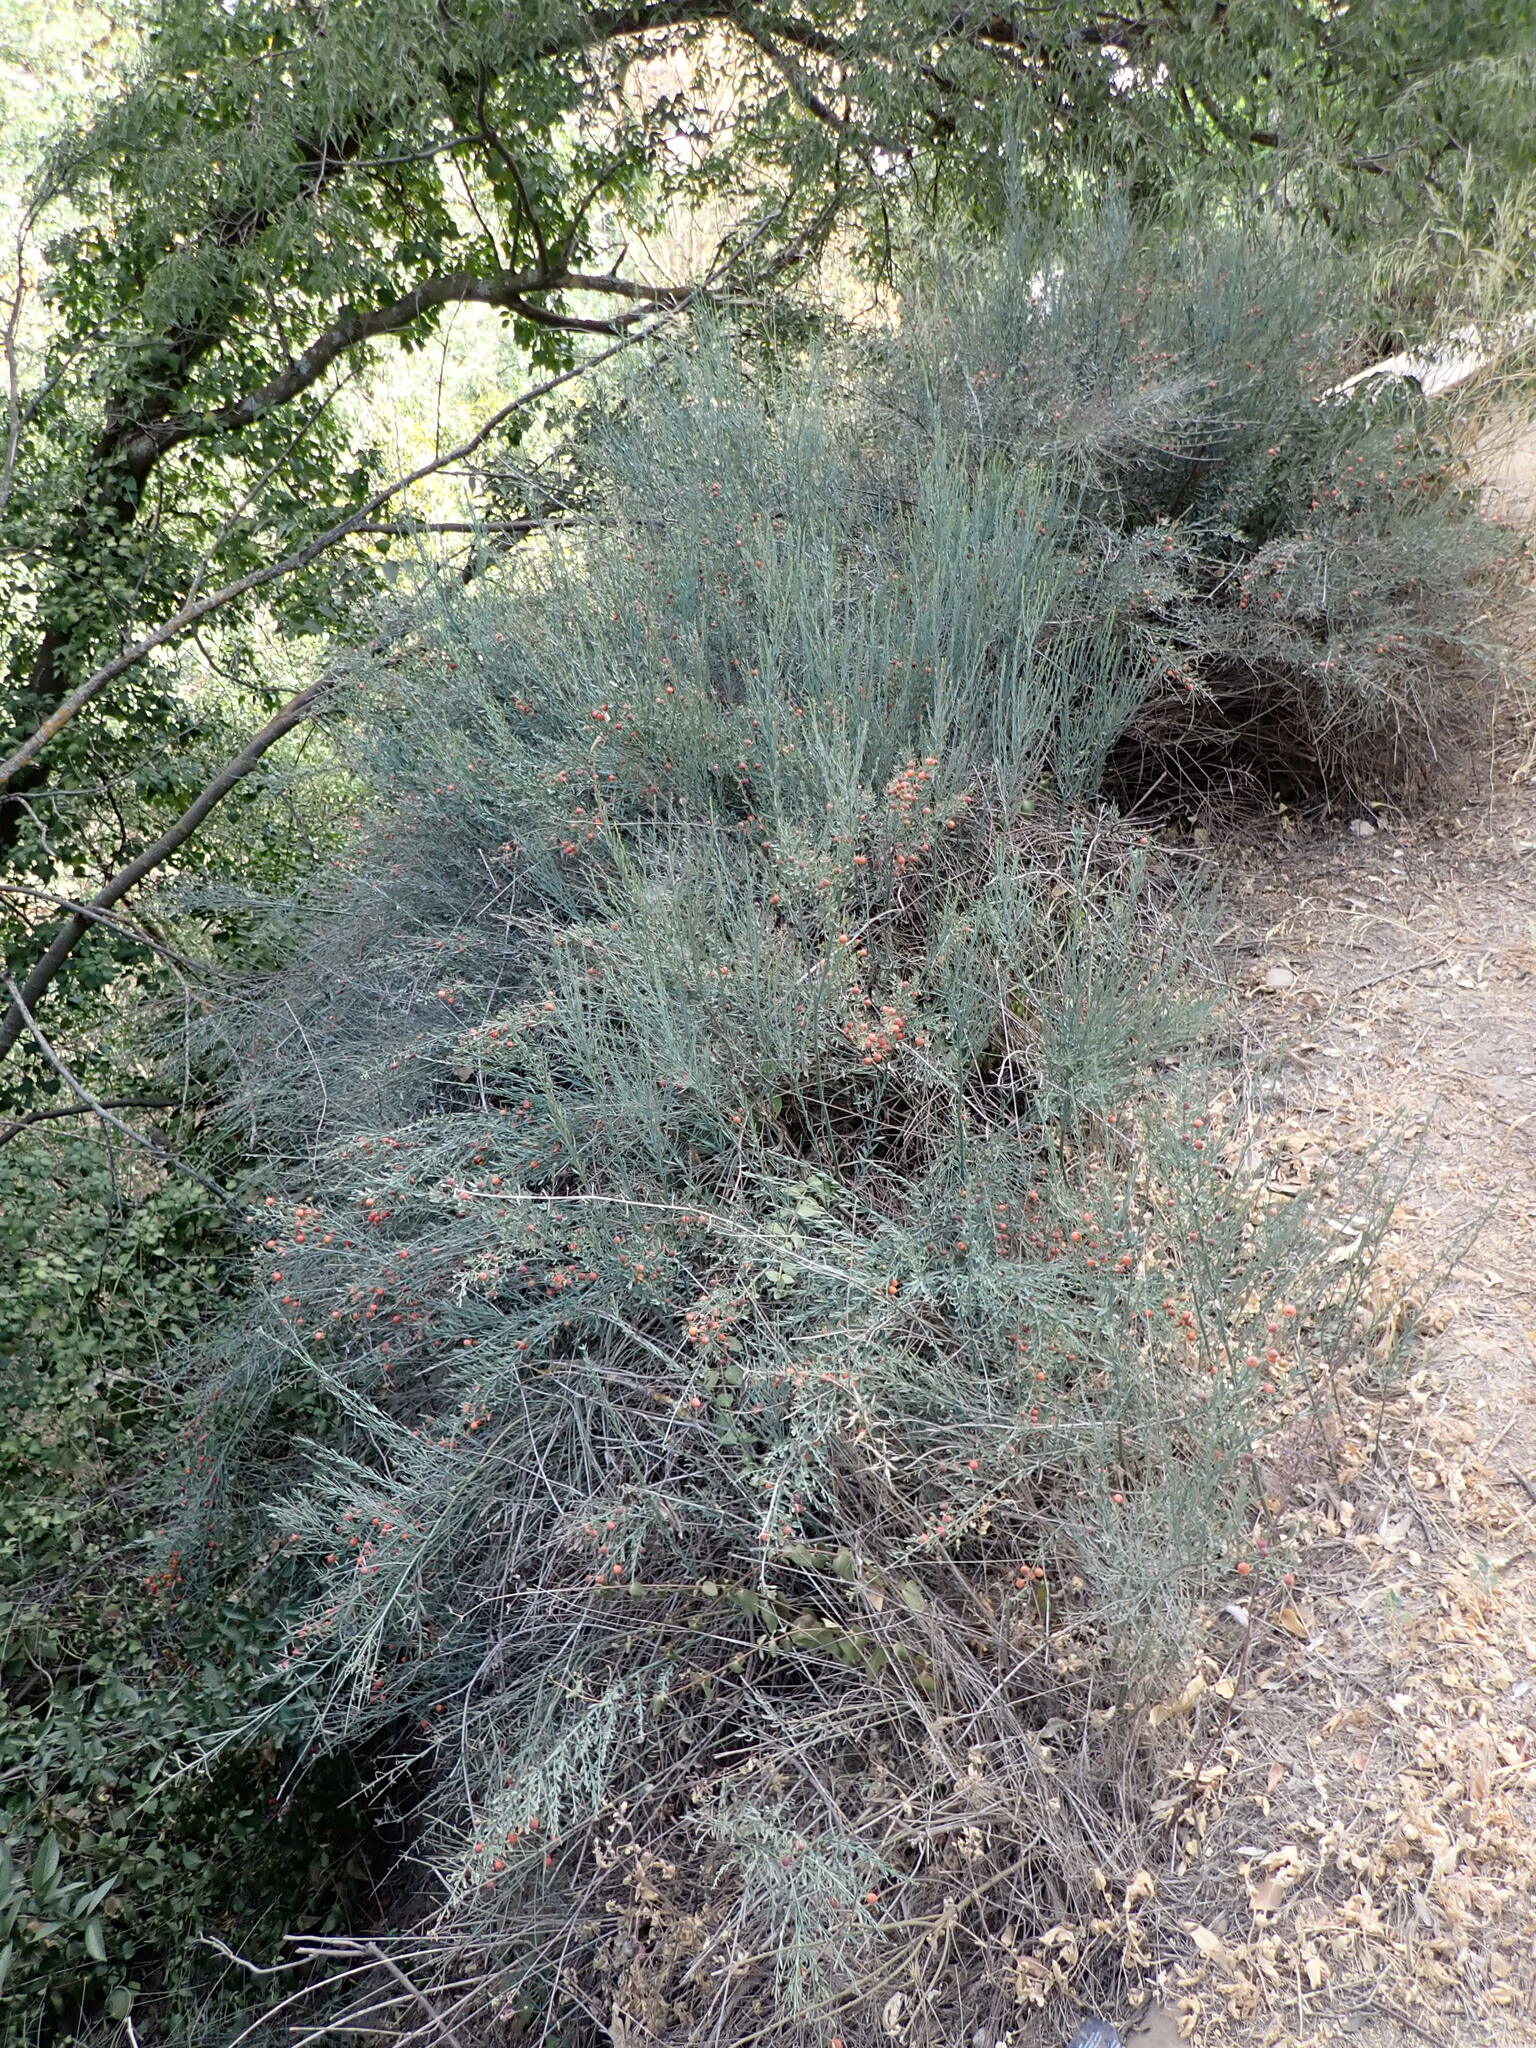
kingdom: Plantae
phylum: Tracheophyta
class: Magnoliopsida
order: Santalales
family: Santalaceae
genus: Osyris
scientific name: Osyris alba
